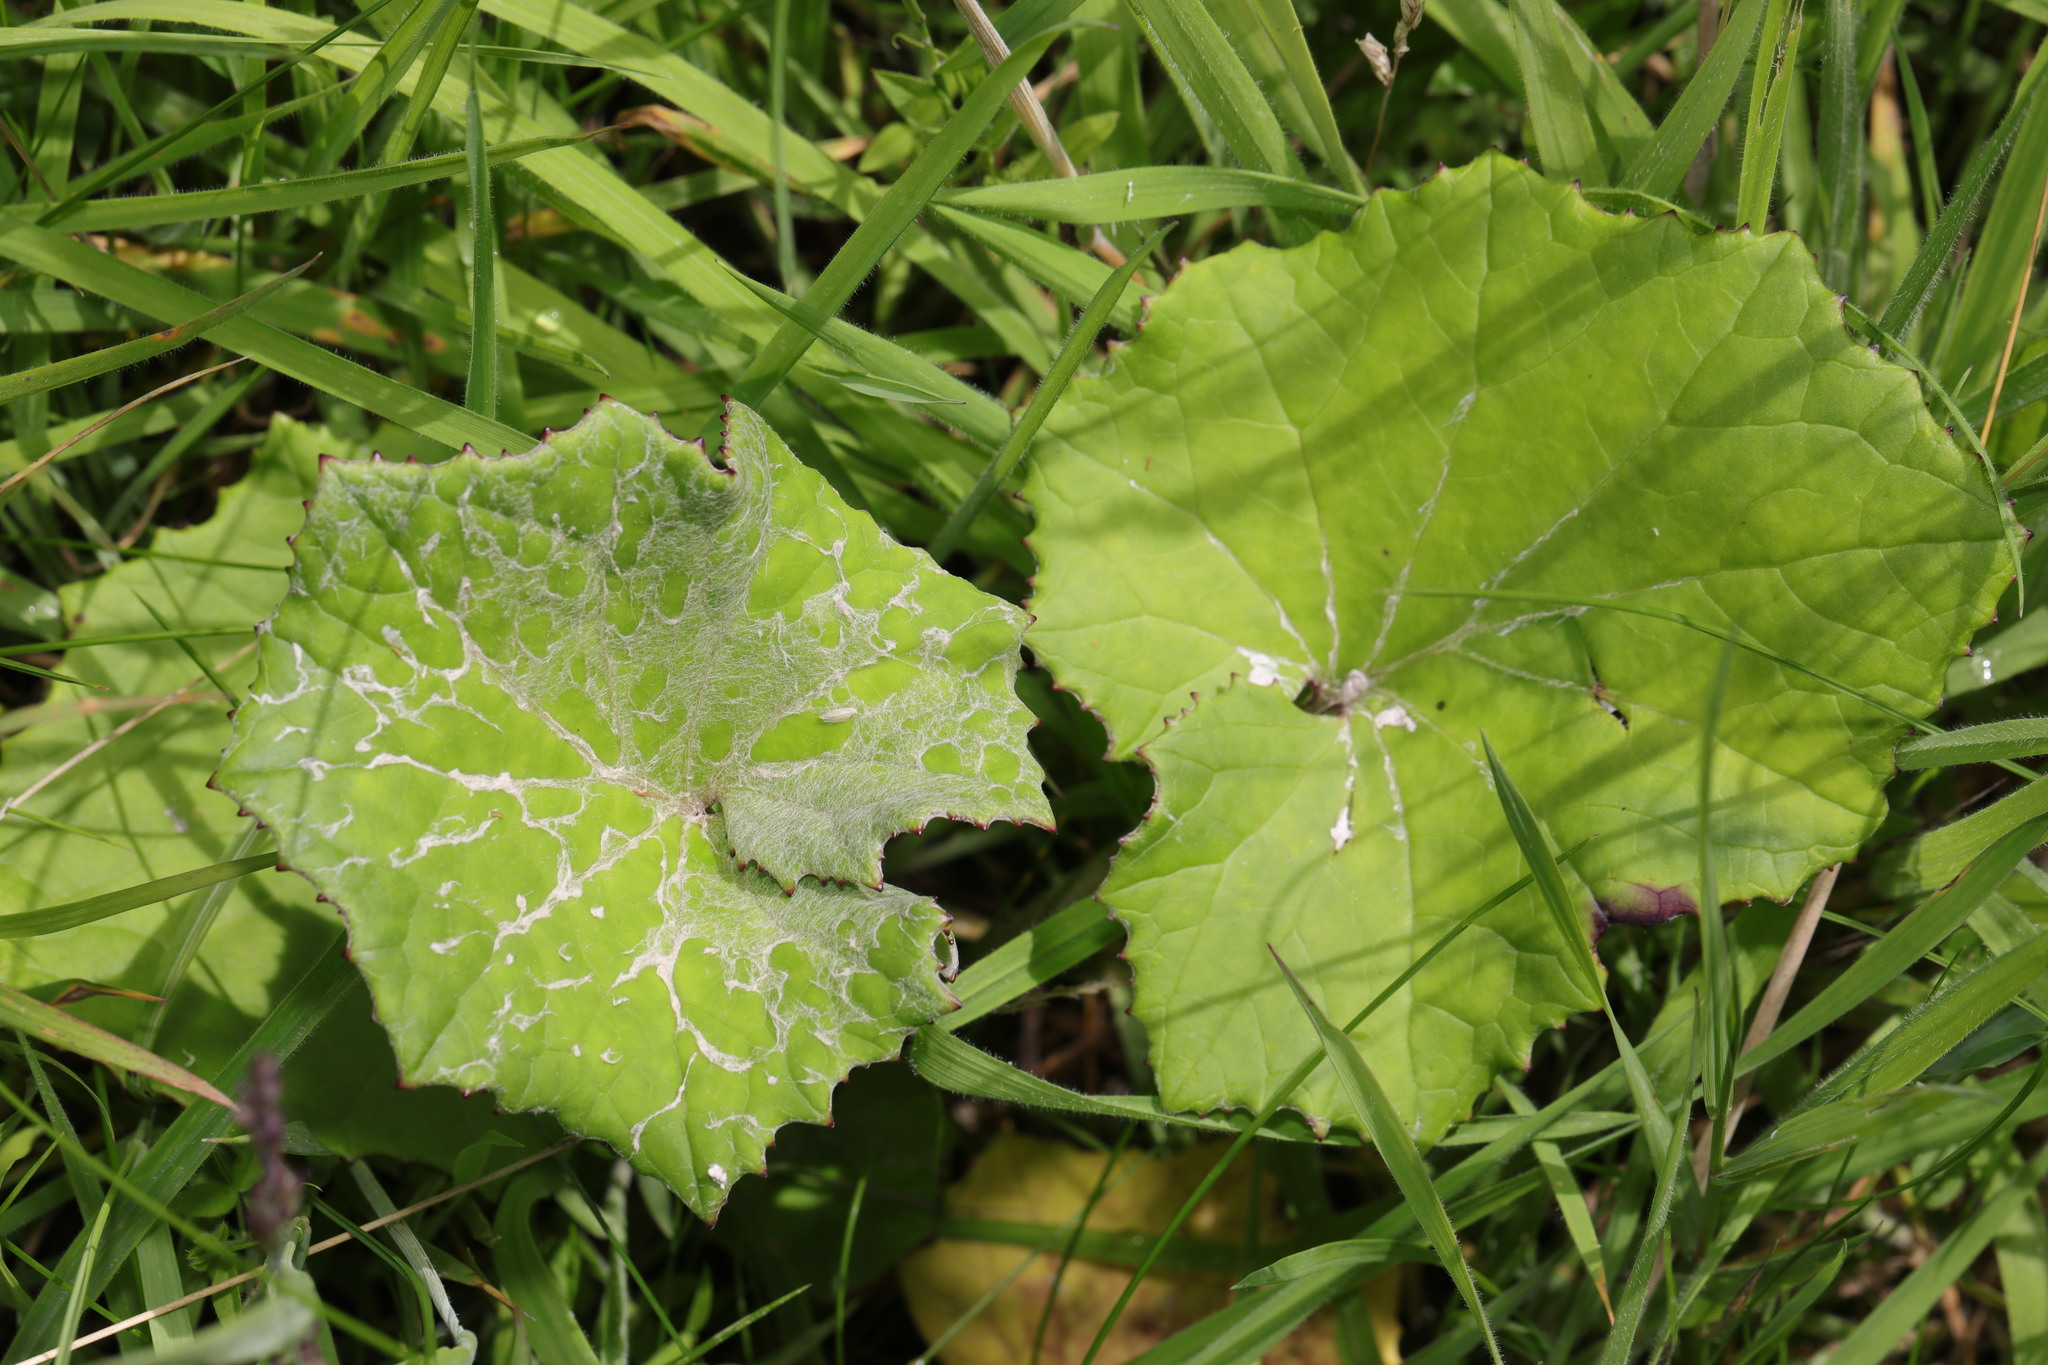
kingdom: Plantae
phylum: Tracheophyta
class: Magnoliopsida
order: Asterales
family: Asteraceae
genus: Tussilago
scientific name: Tussilago farfara
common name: Coltsfoot
